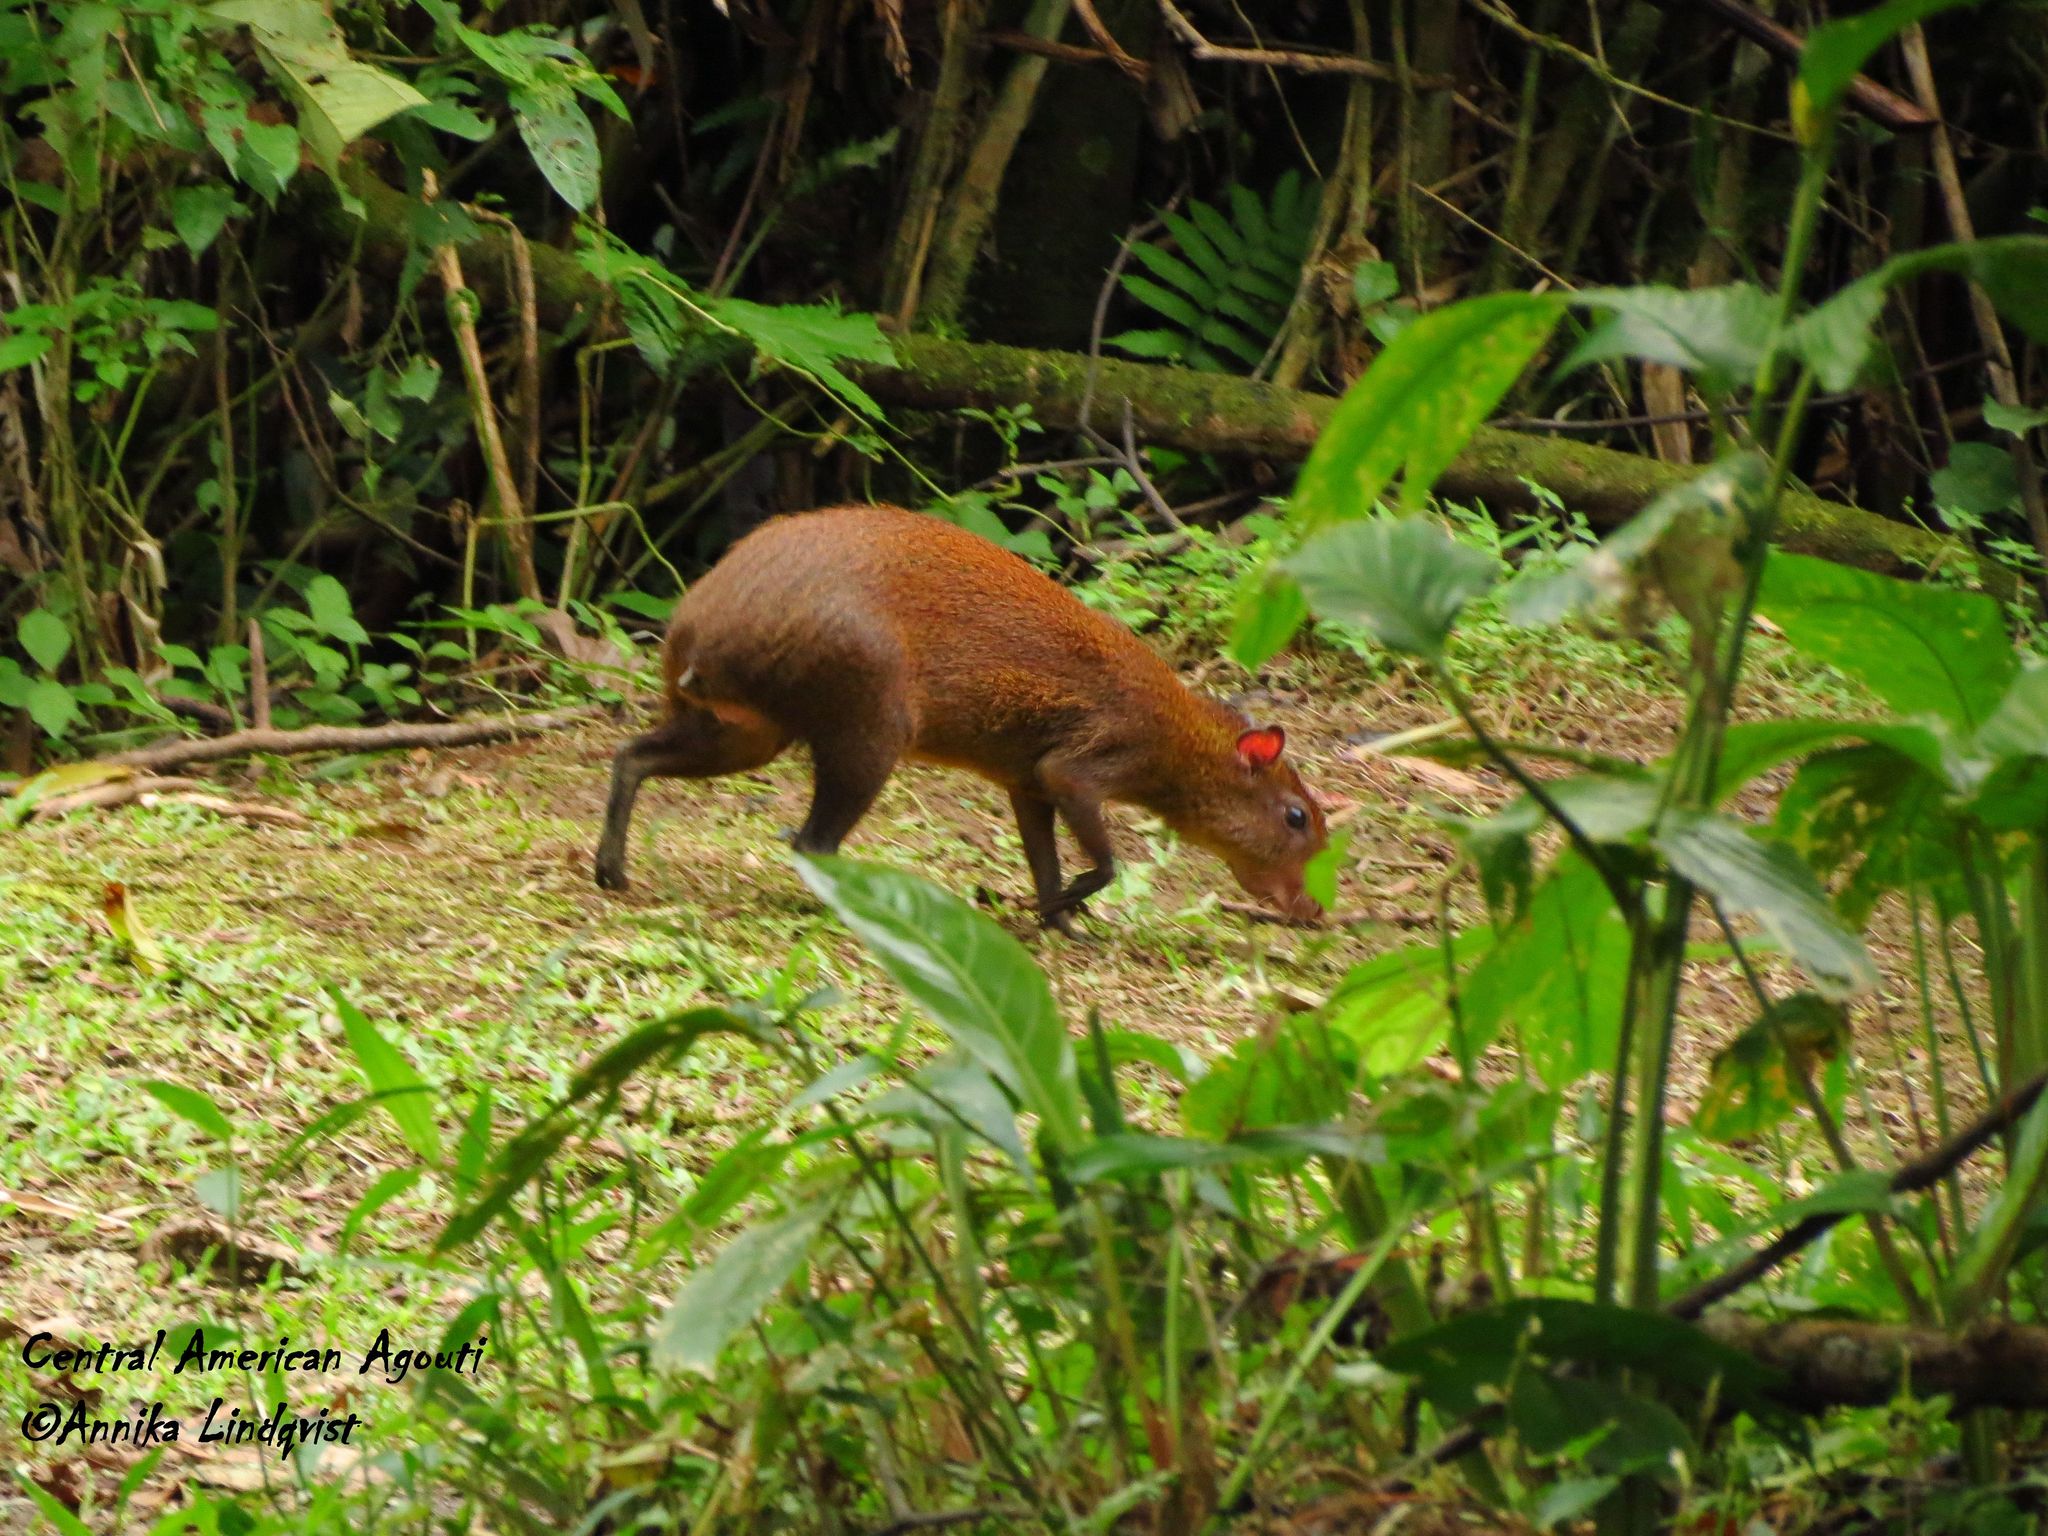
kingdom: Animalia
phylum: Chordata
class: Mammalia
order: Rodentia
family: Dasyproctidae
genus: Dasyprocta
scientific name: Dasyprocta punctata
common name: Central american agouti
